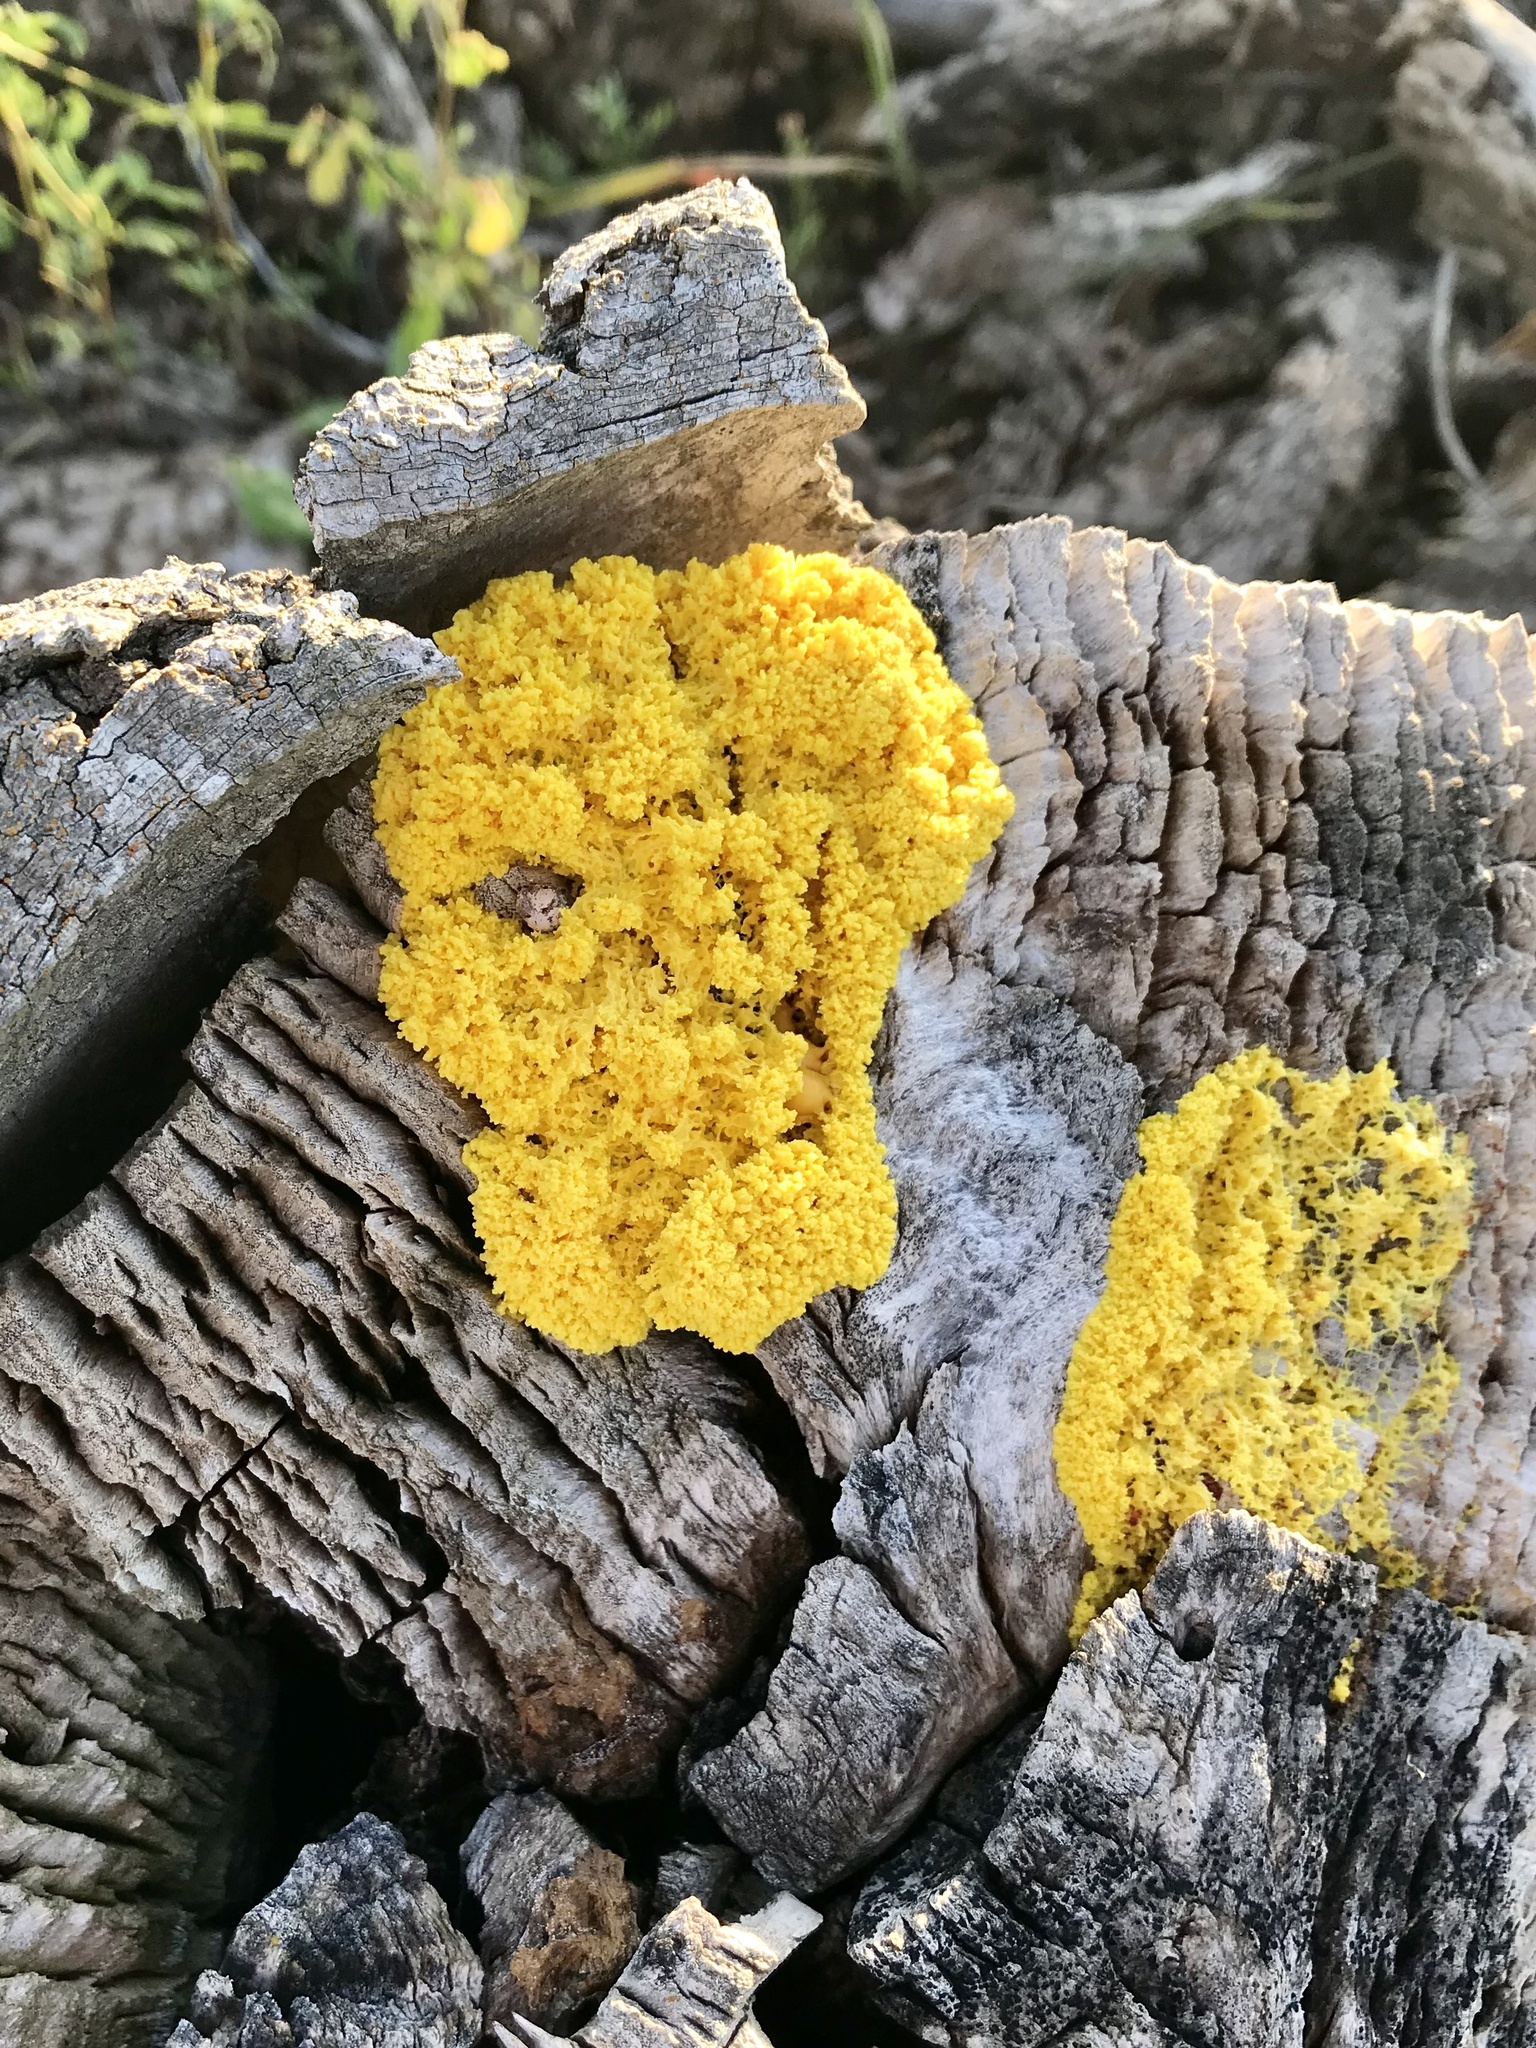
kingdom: Protozoa
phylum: Mycetozoa
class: Myxomycetes
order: Physarales
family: Physaraceae
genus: Fuligo
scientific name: Fuligo septica
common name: Dog vomit slime mold
